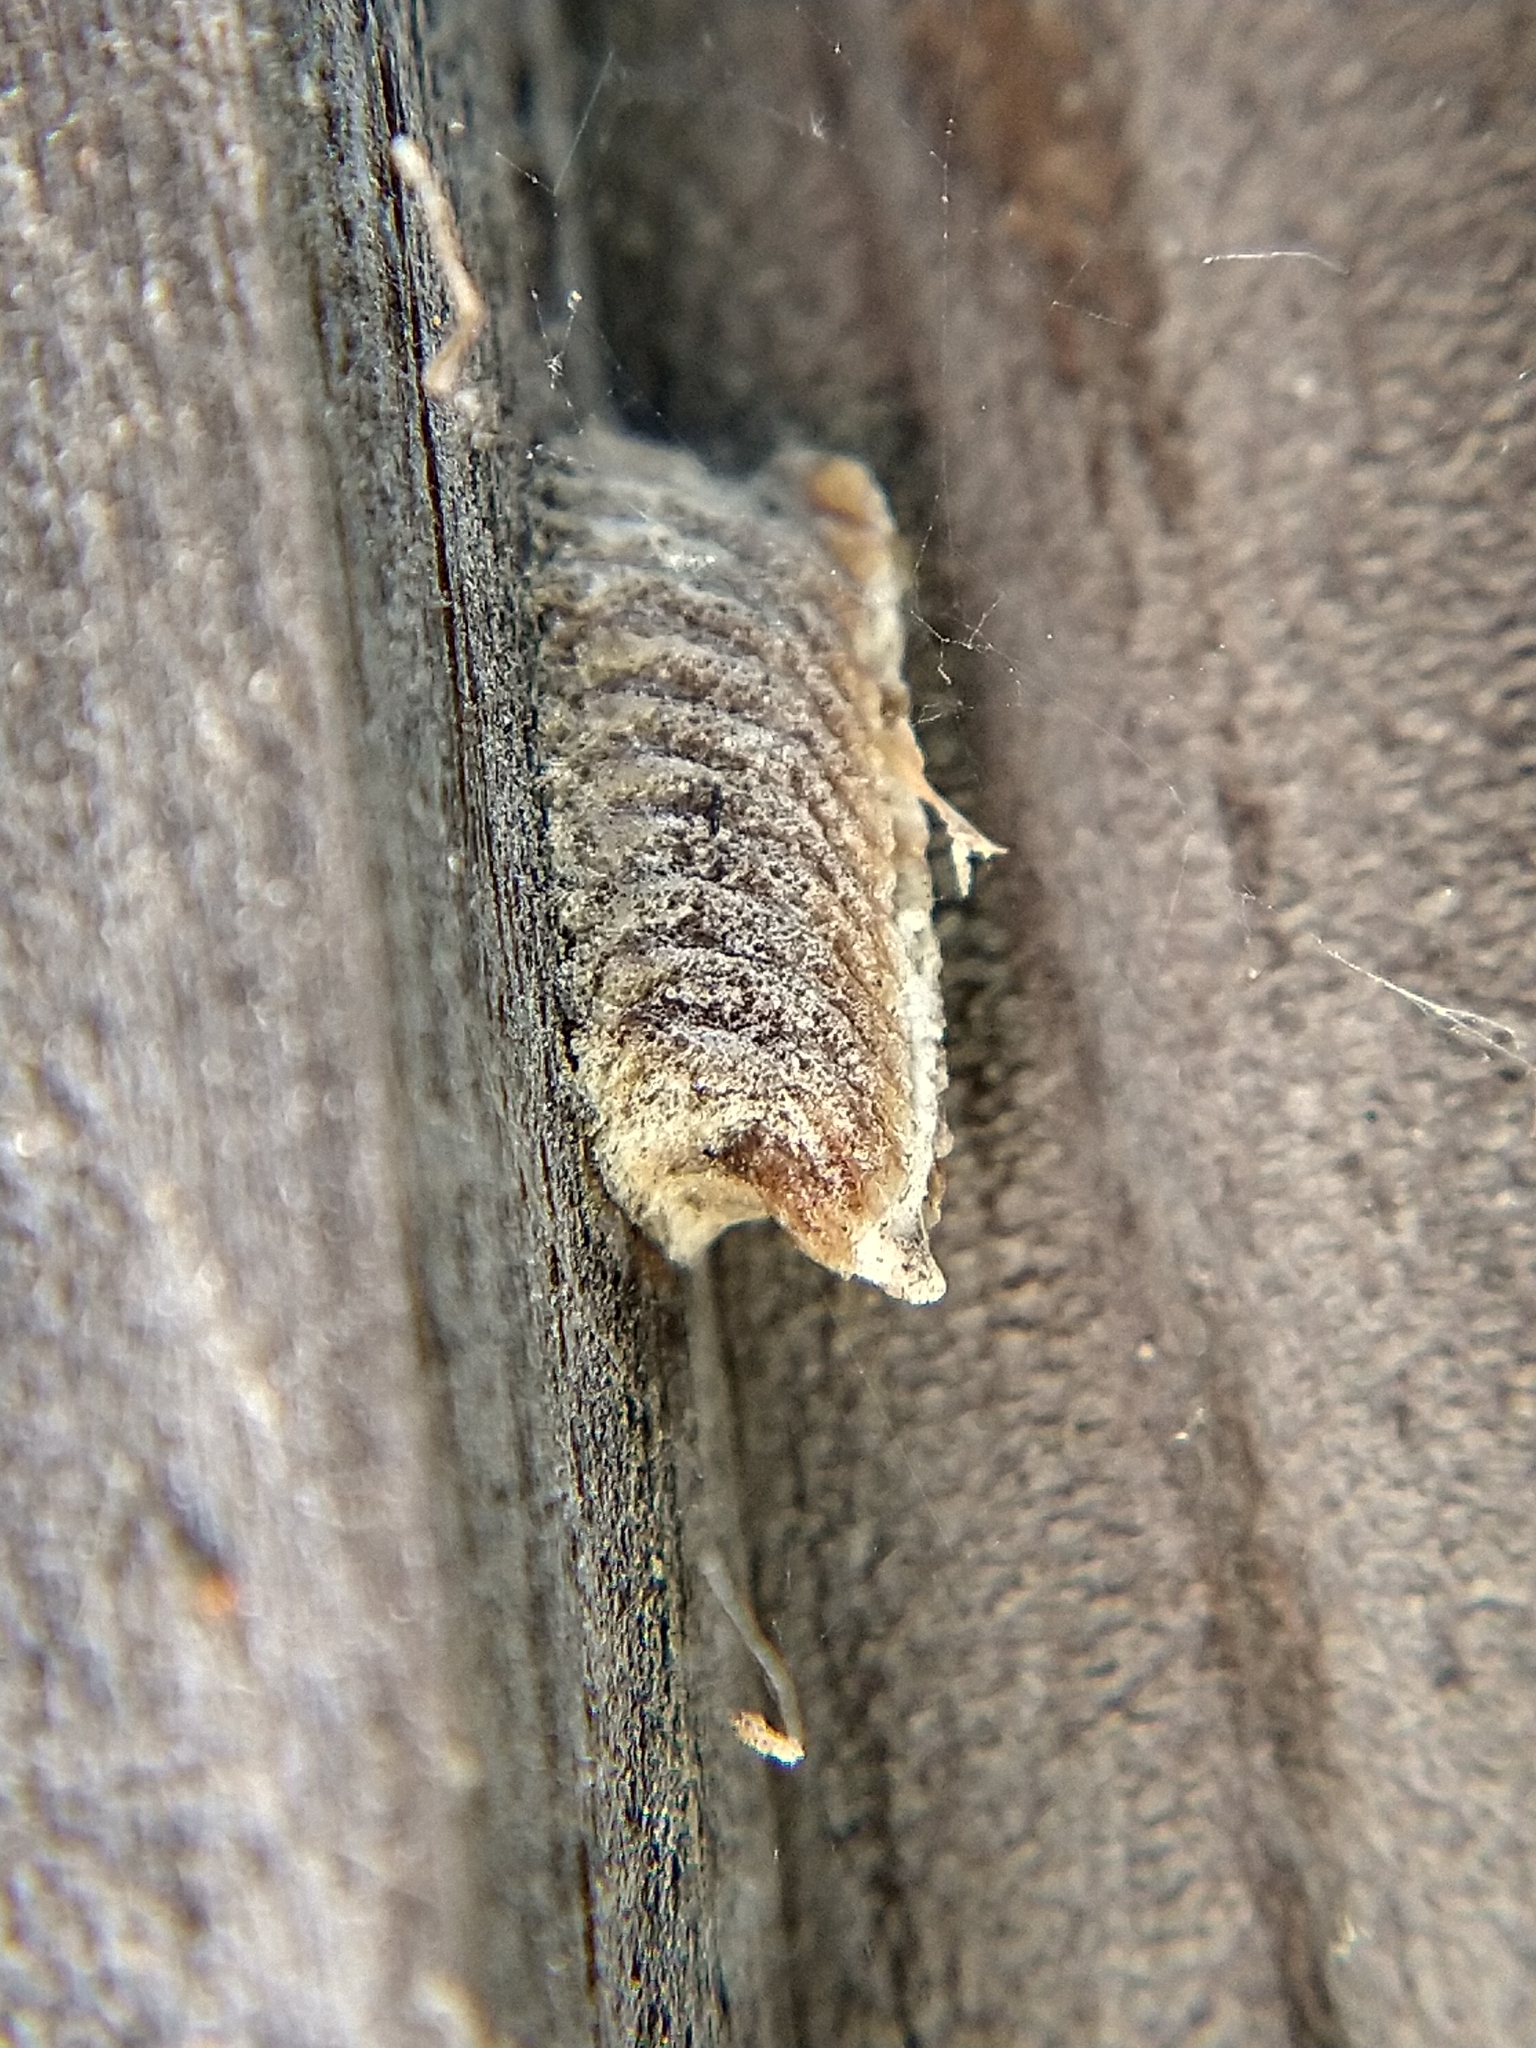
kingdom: Animalia
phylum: Arthropoda
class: Insecta
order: Mantodea
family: Eremiaphilidae
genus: Iris
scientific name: Iris oratoria
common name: Mediterranean mantis
